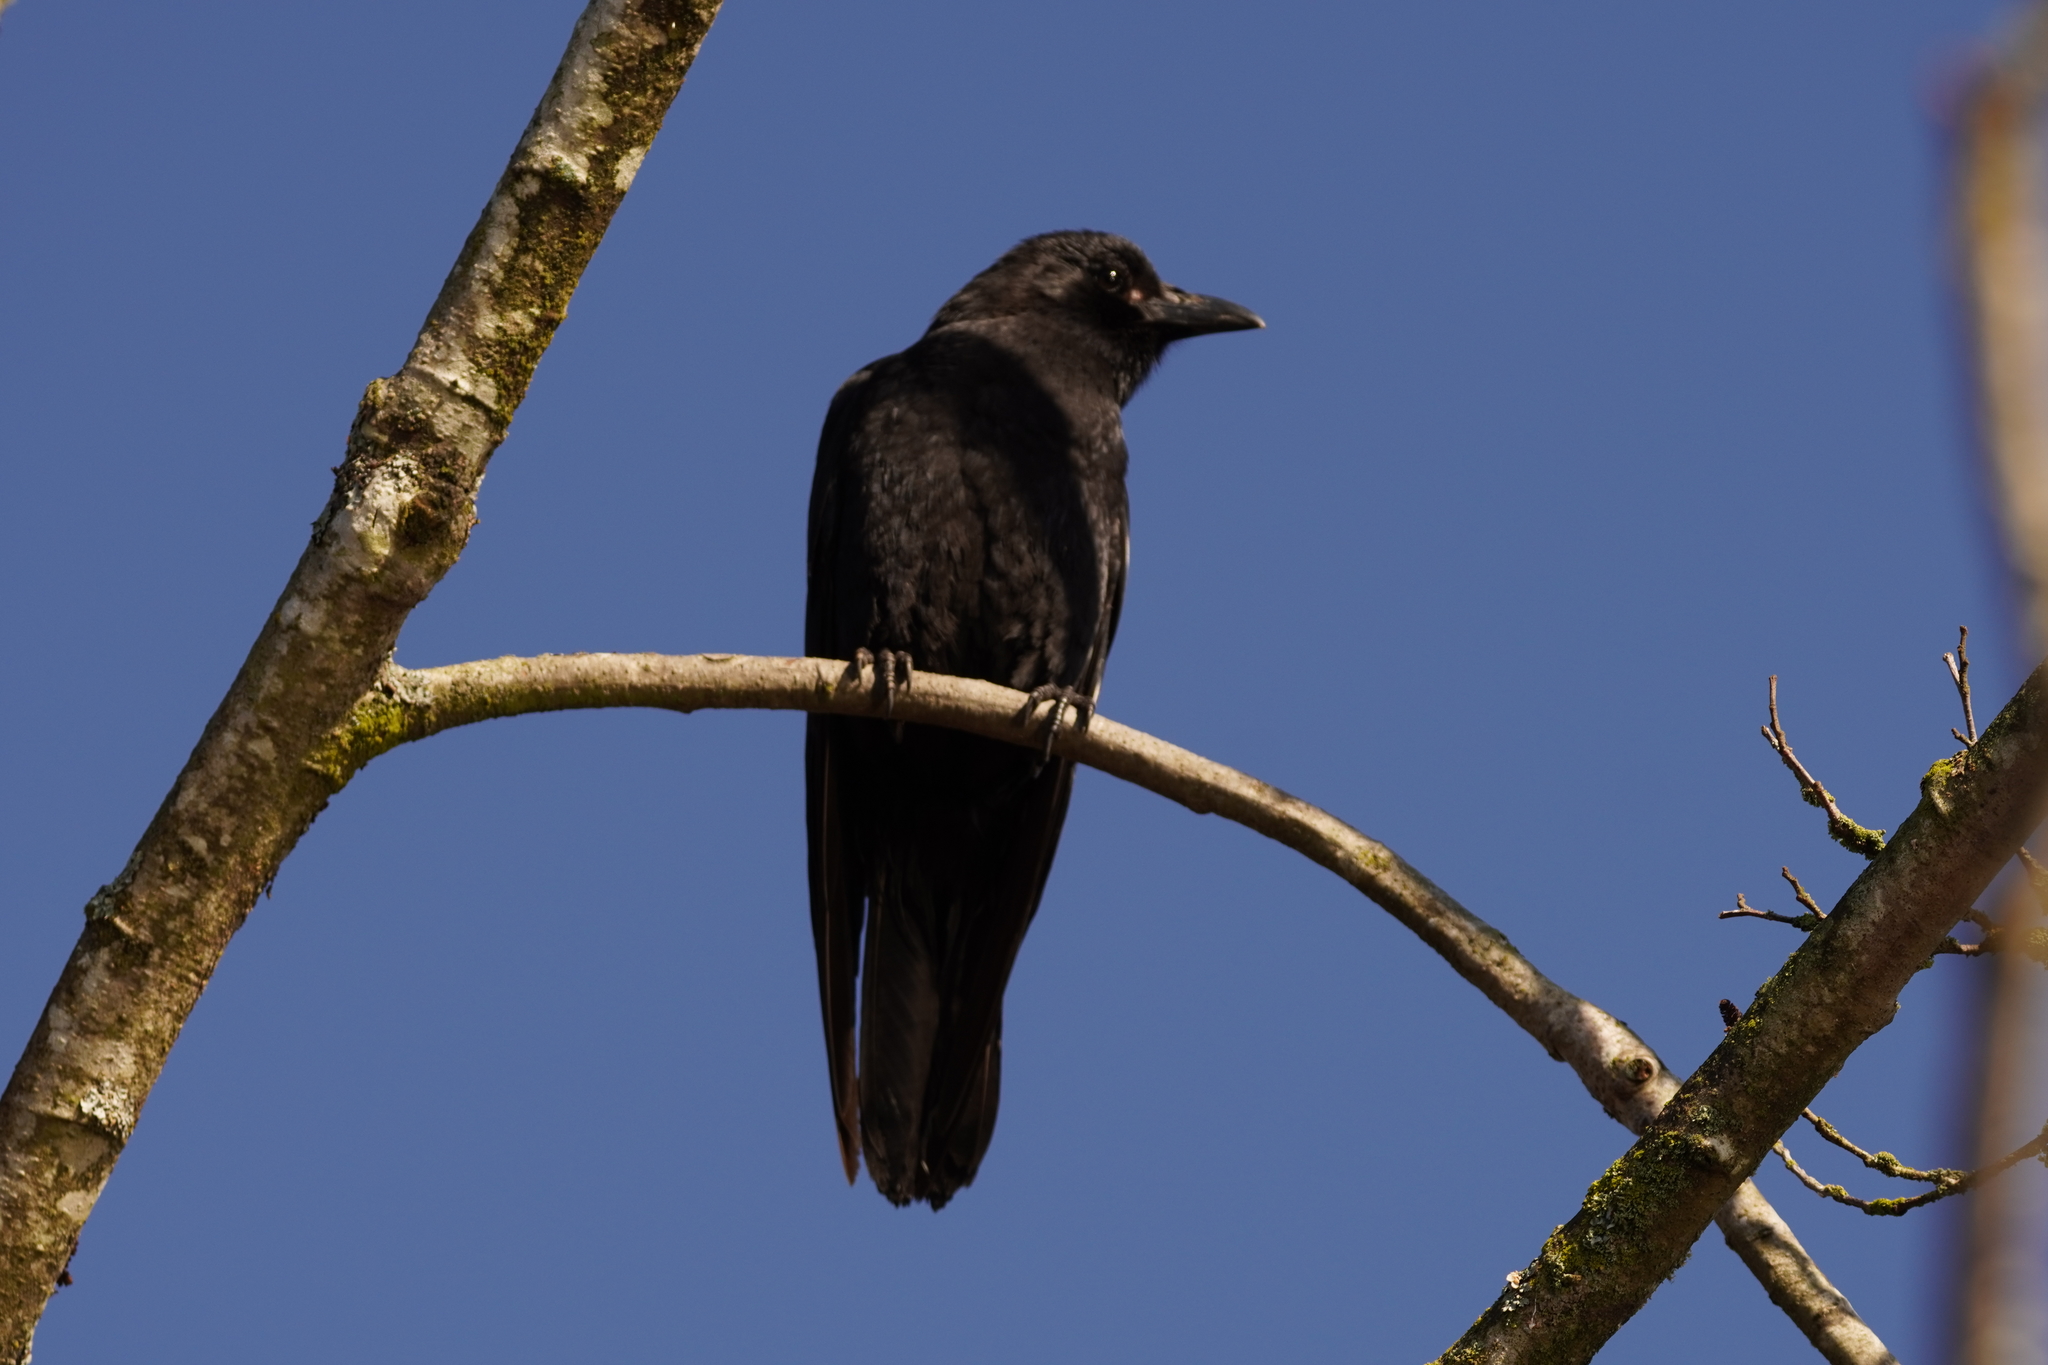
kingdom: Animalia
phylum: Chordata
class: Aves
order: Passeriformes
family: Corvidae
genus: Corvus
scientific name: Corvus brachyrhynchos
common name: American crow
